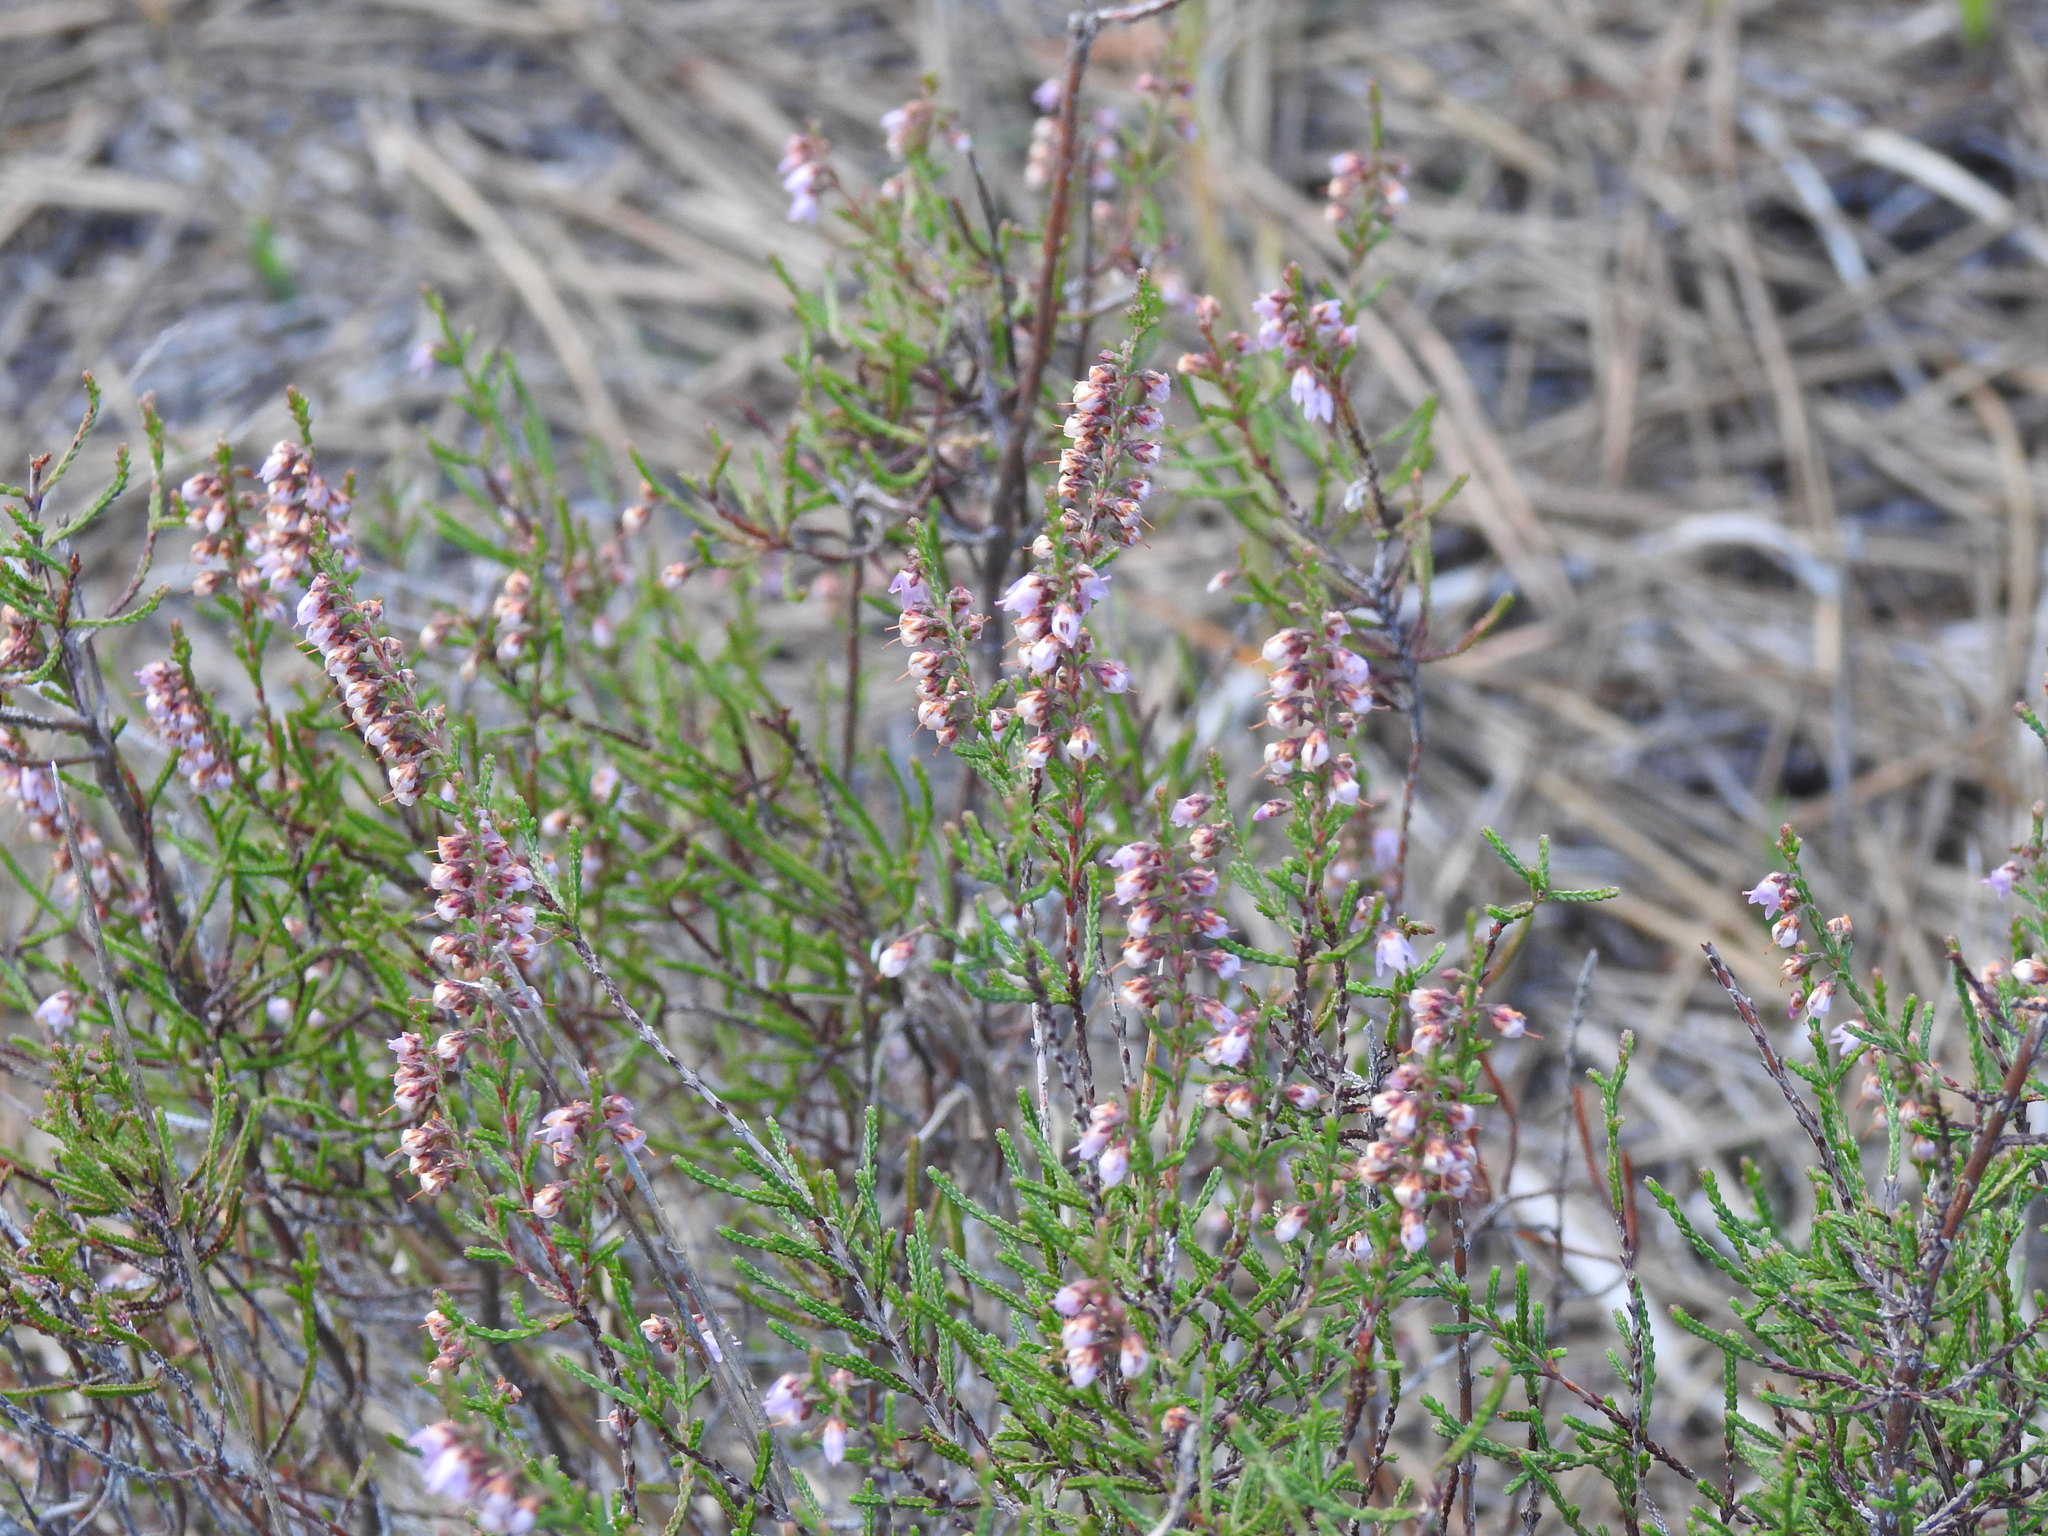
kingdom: Plantae
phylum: Tracheophyta
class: Magnoliopsida
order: Ericales
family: Ericaceae
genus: Calluna
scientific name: Calluna vulgaris
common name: Heather
